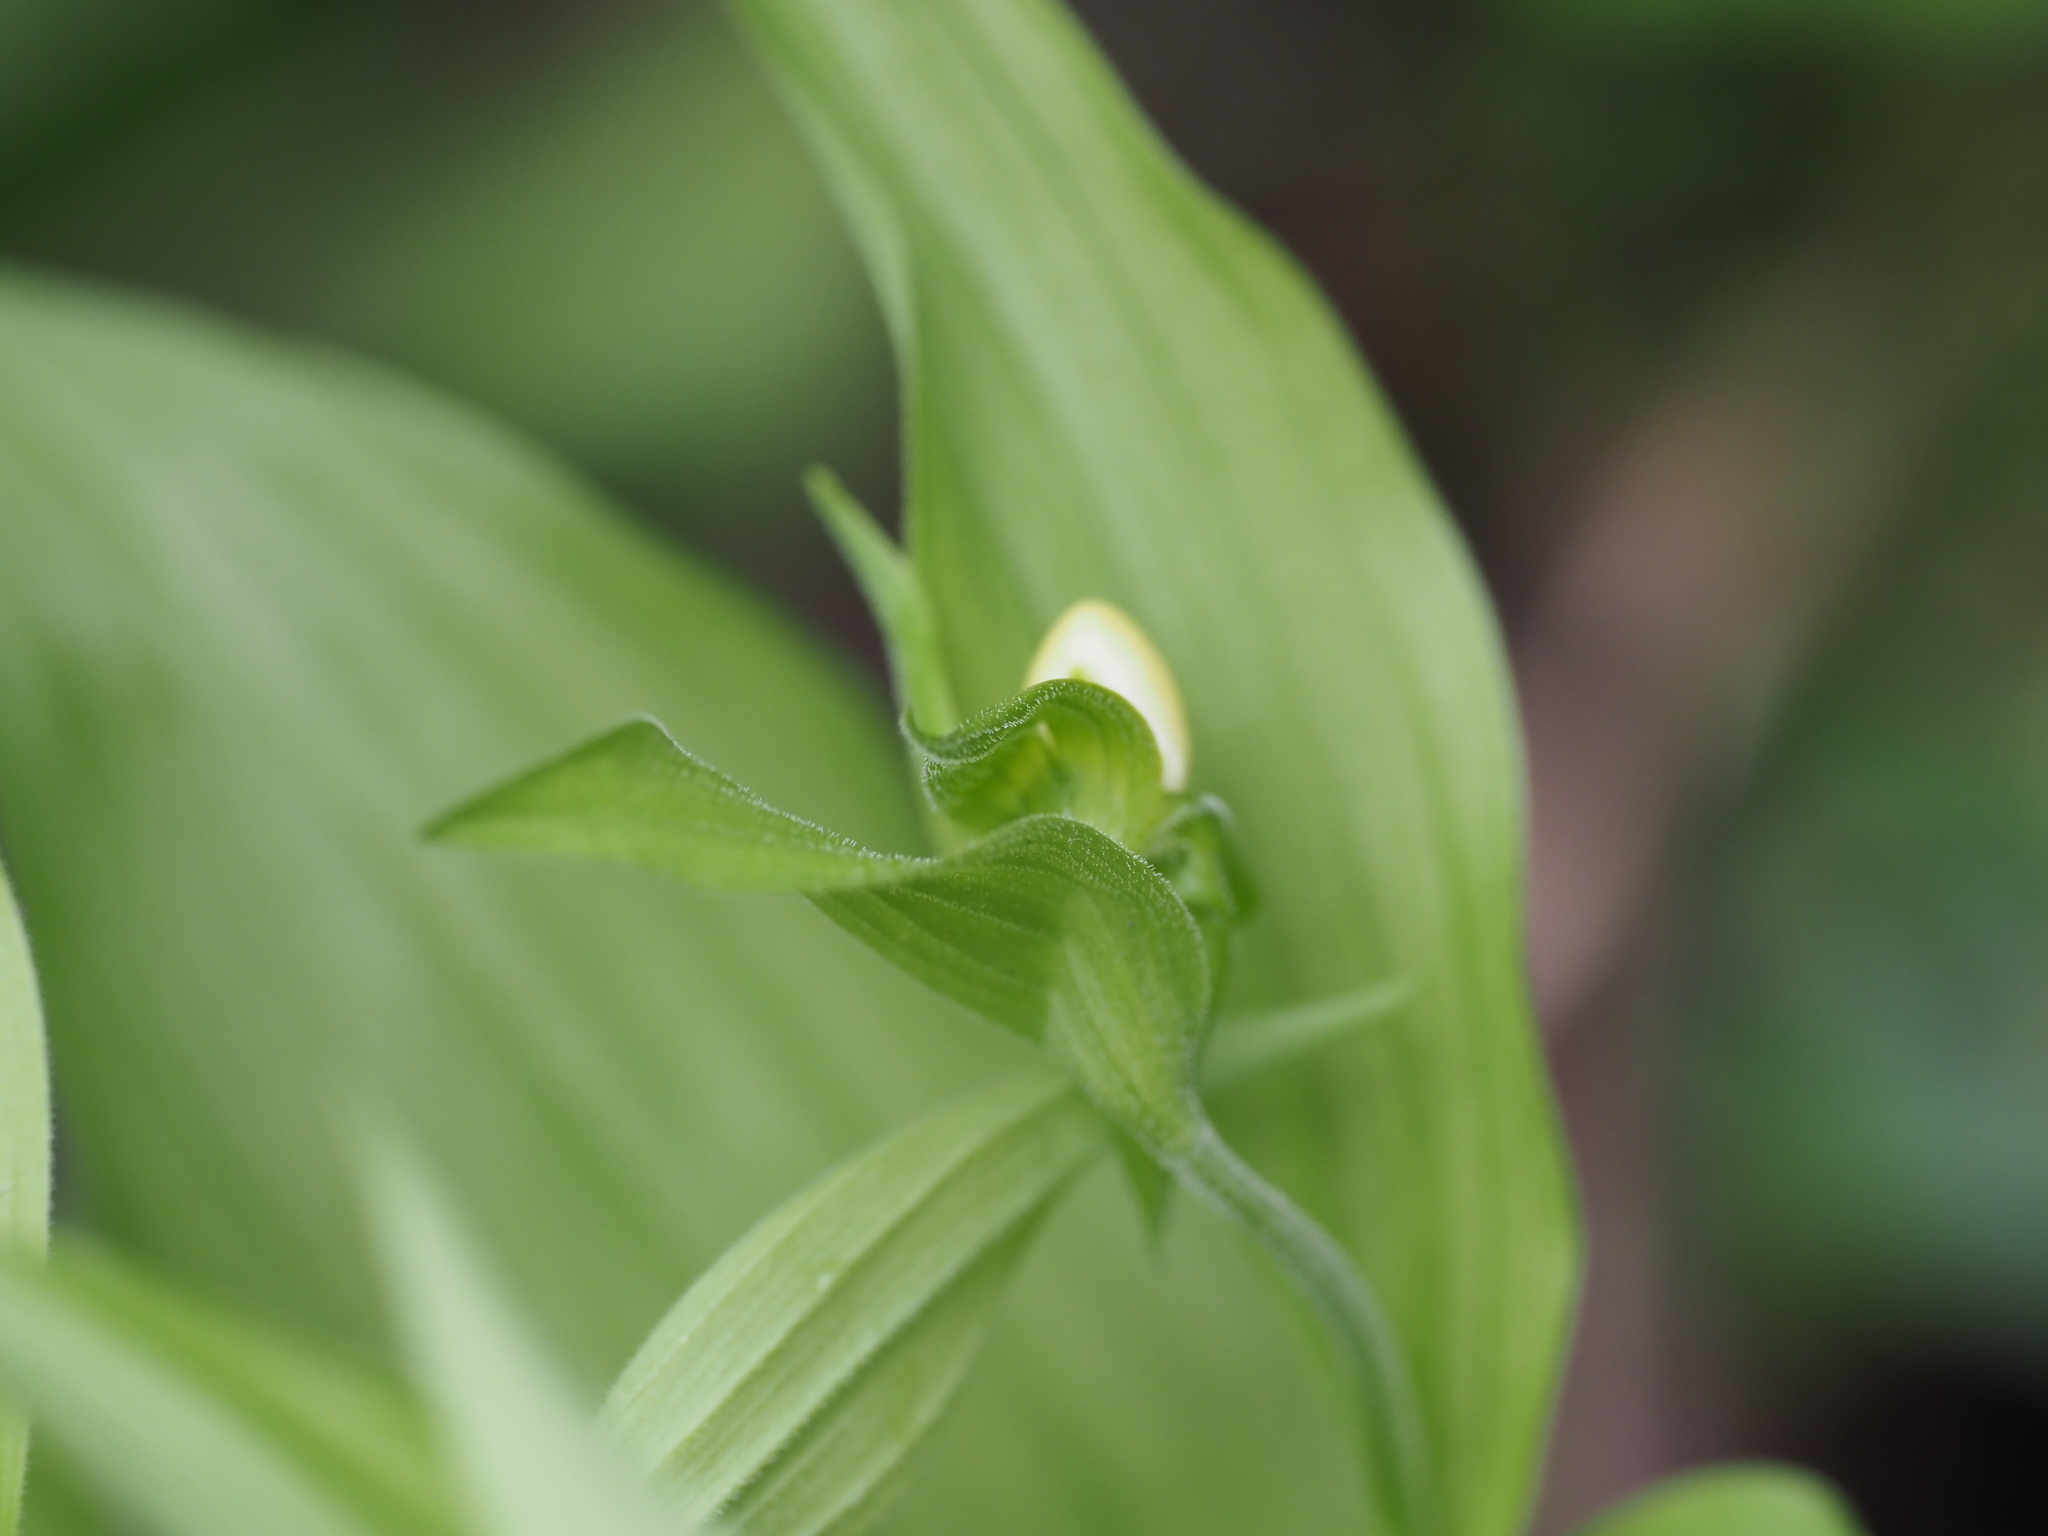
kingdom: Plantae
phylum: Tracheophyta
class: Liliopsida
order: Asparagales
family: Orchidaceae
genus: Cypripedium
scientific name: Cypripedium montanum
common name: Mountain lady's-slipper
